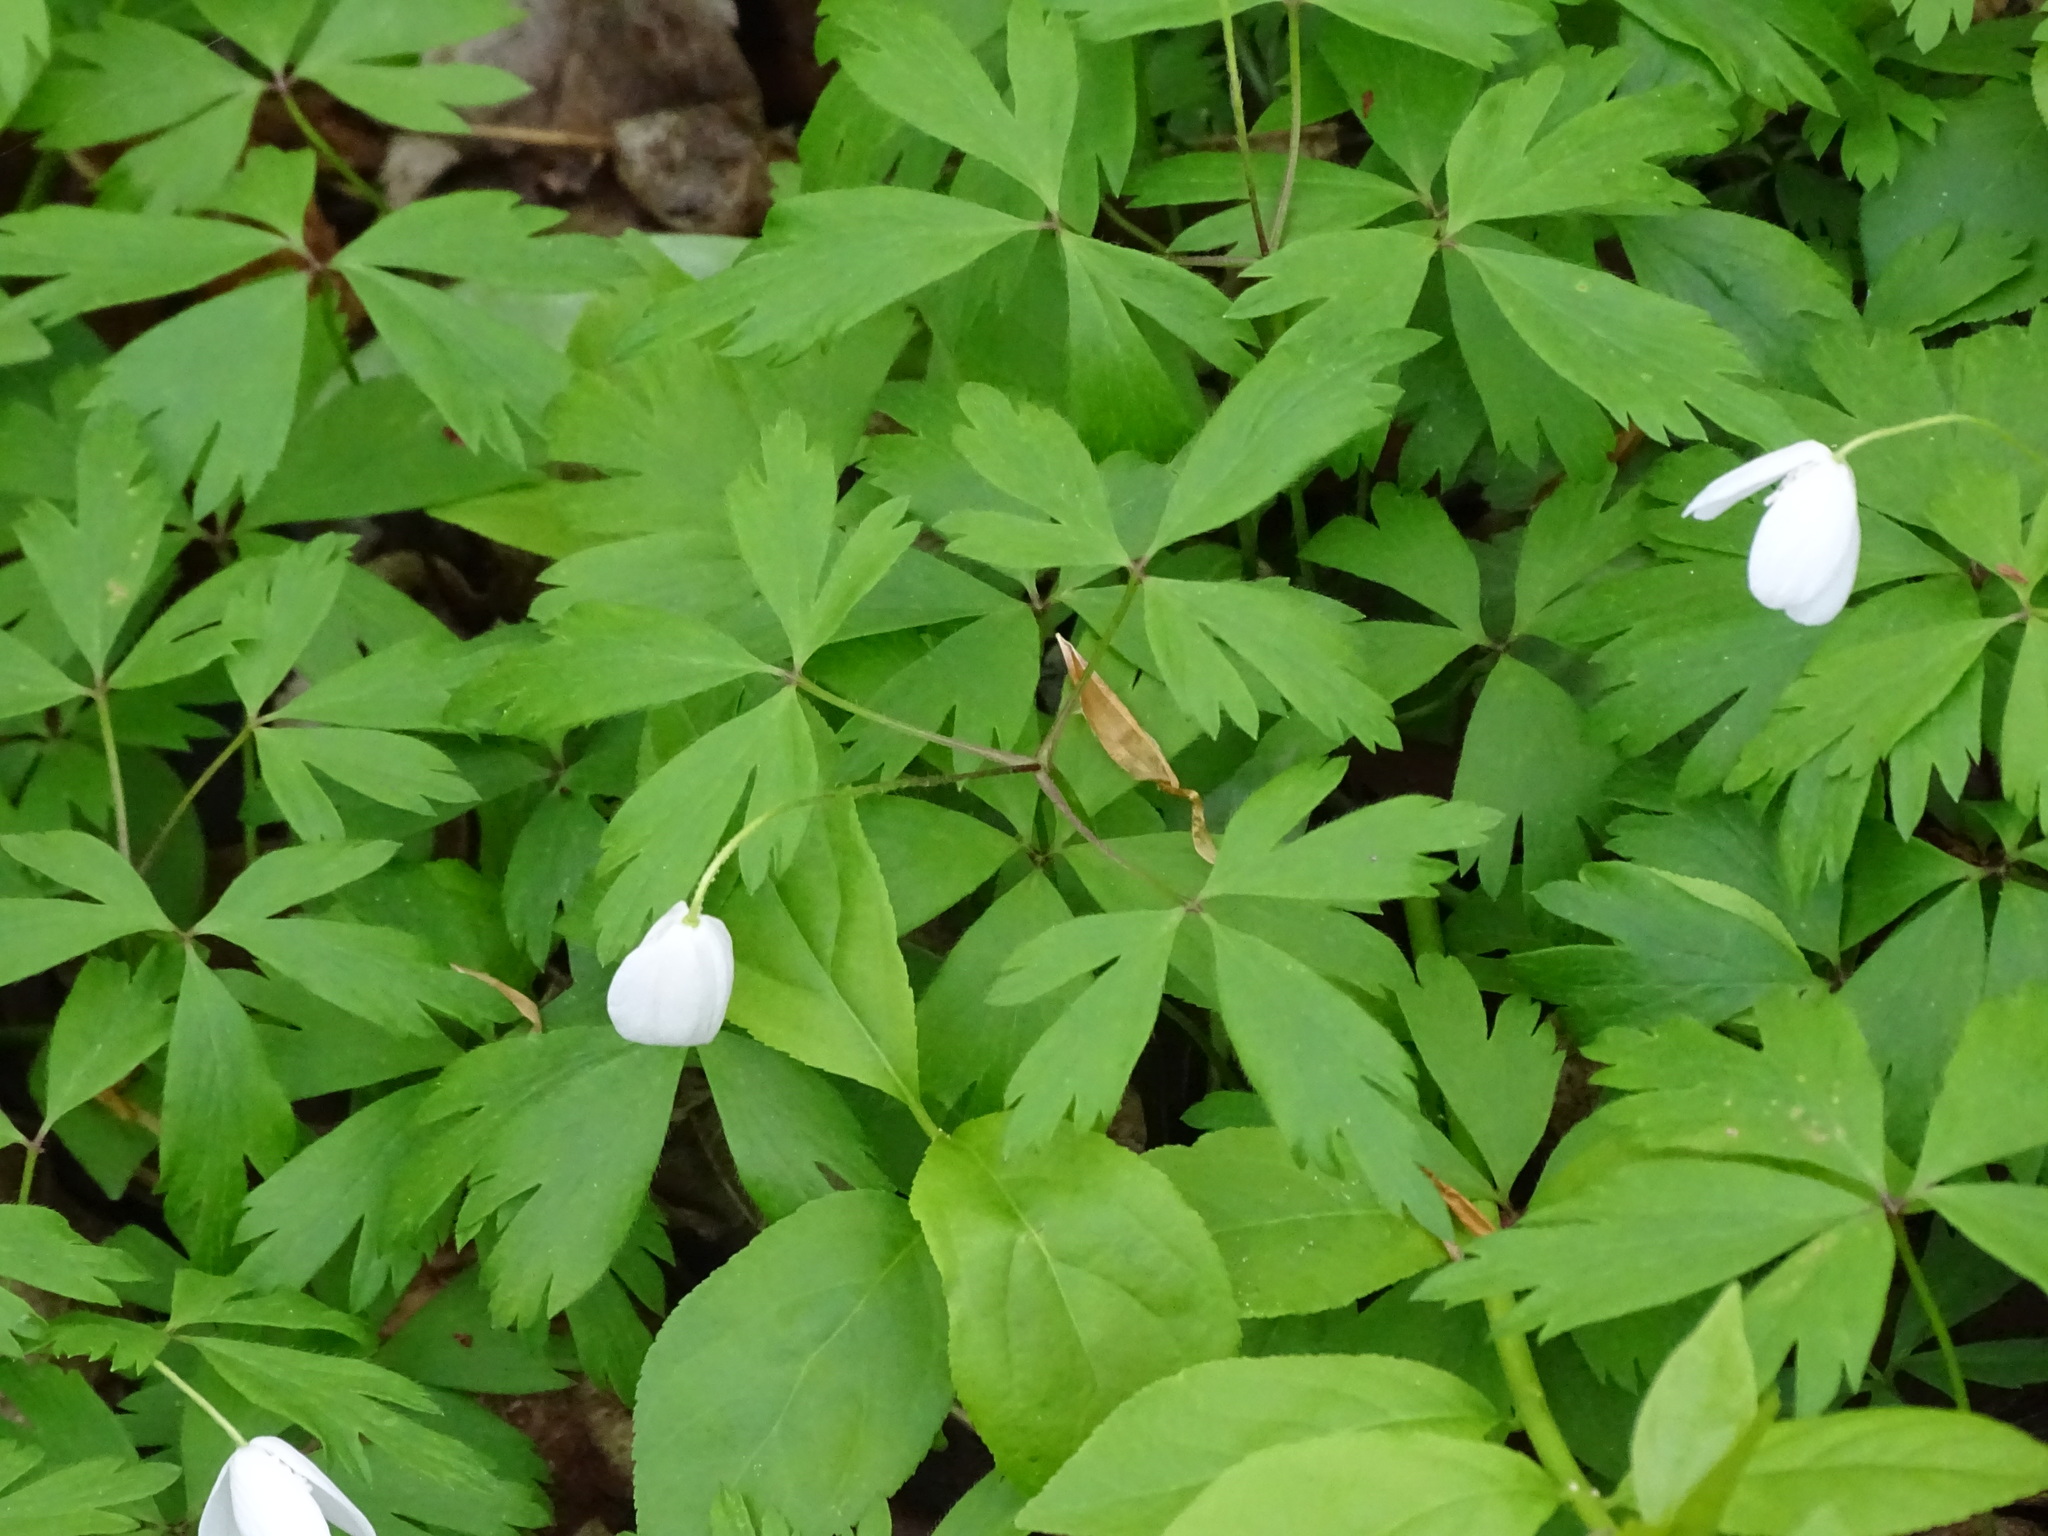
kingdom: Plantae
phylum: Tracheophyta
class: Magnoliopsida
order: Ranunculales
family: Ranunculaceae
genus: Anemone
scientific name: Anemone quinquefolia
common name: Wood anemone
